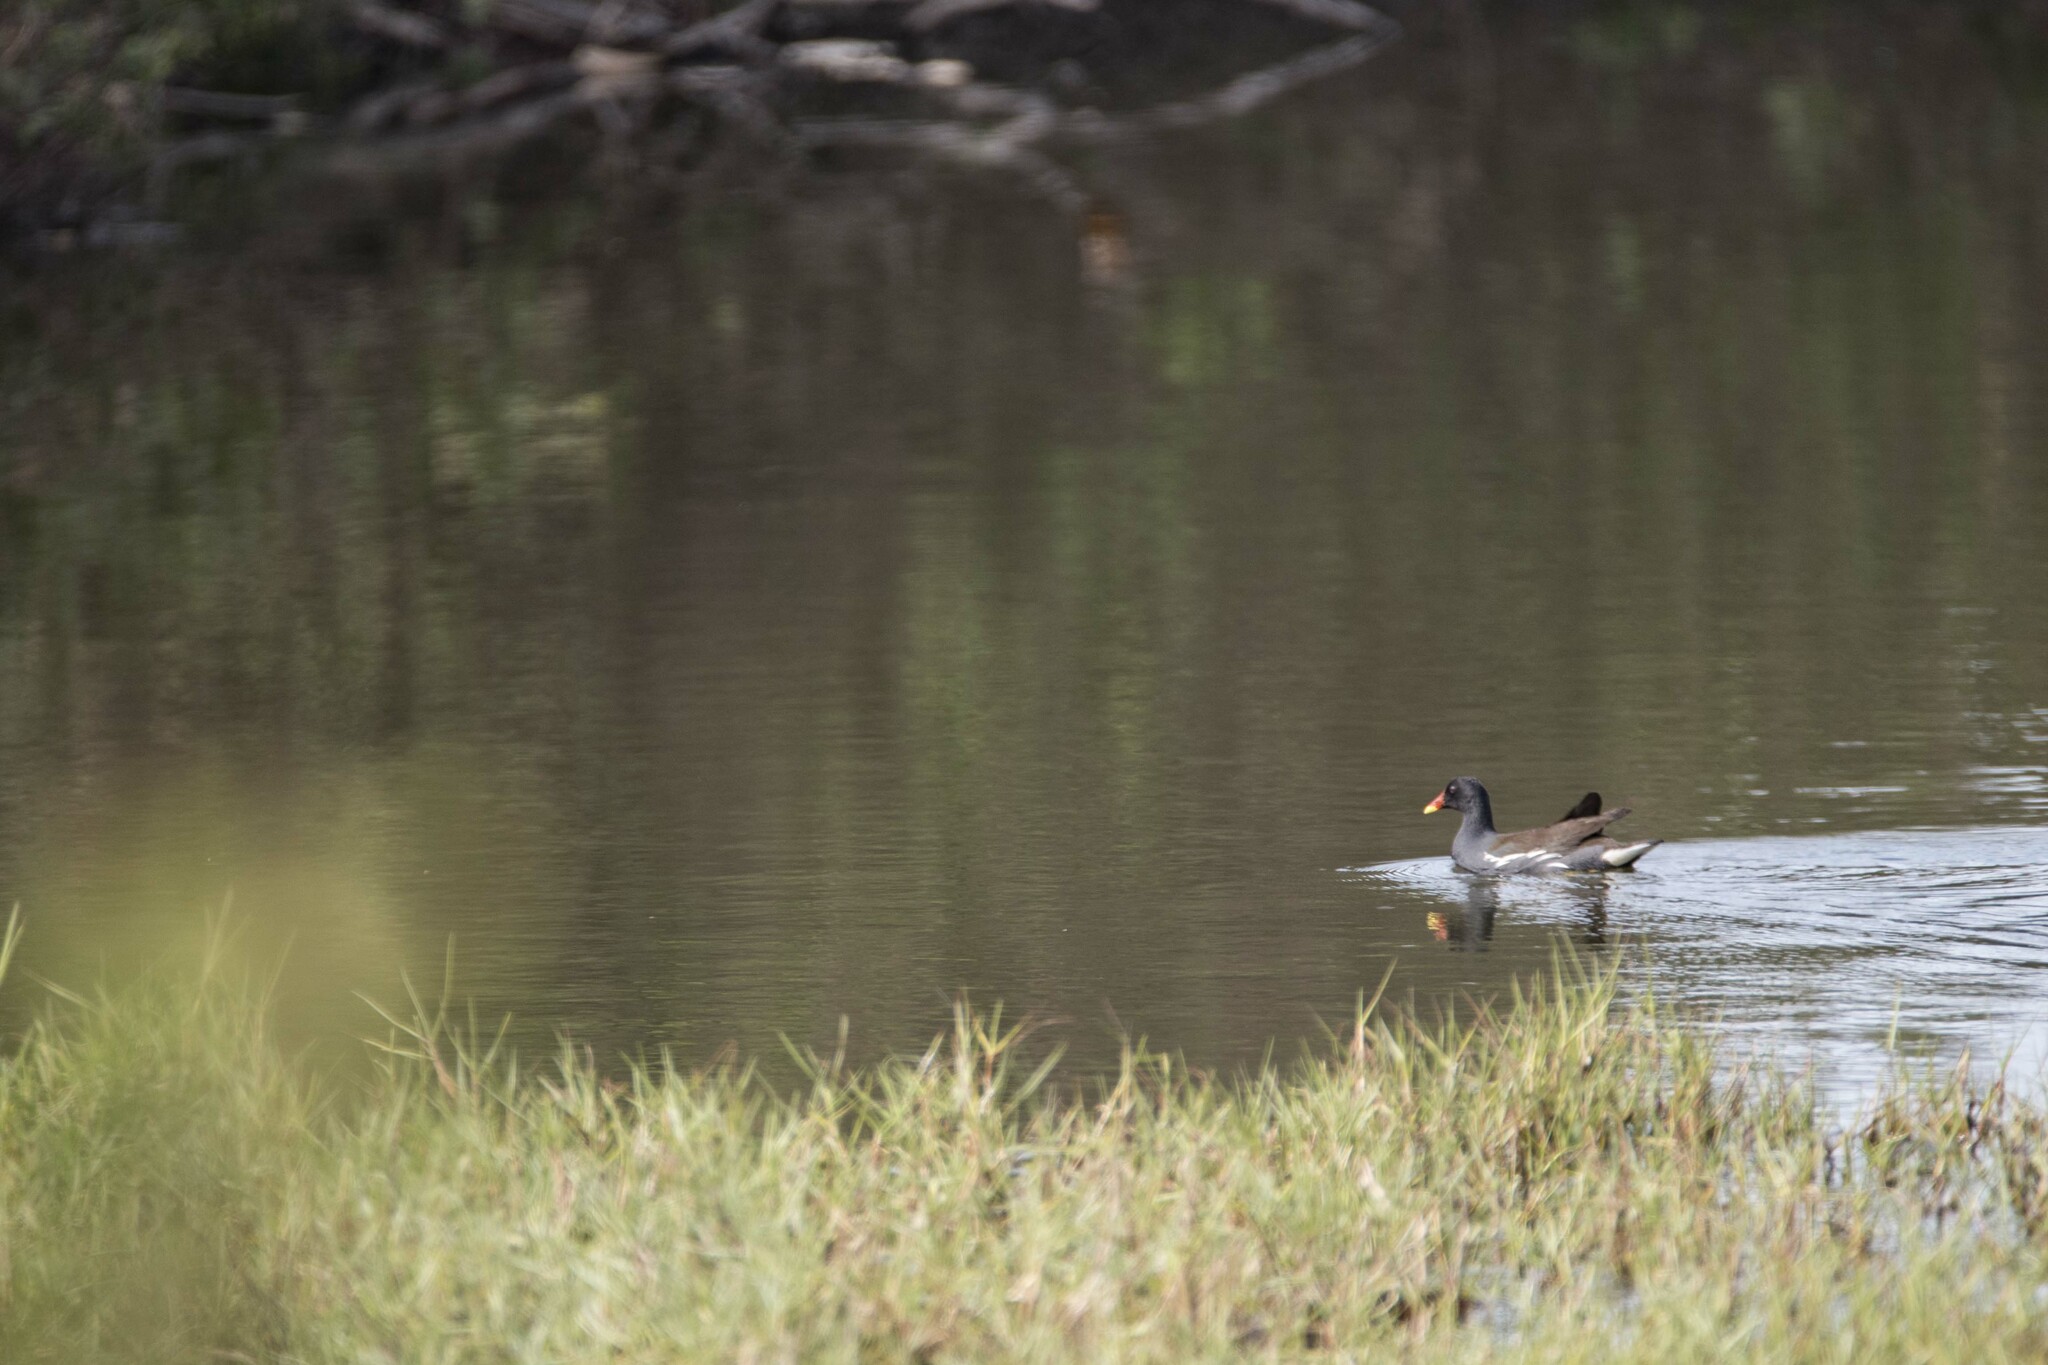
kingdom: Animalia
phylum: Chordata
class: Aves
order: Gruiformes
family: Rallidae
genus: Gallinula
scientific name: Gallinula chloropus
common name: Common moorhen
